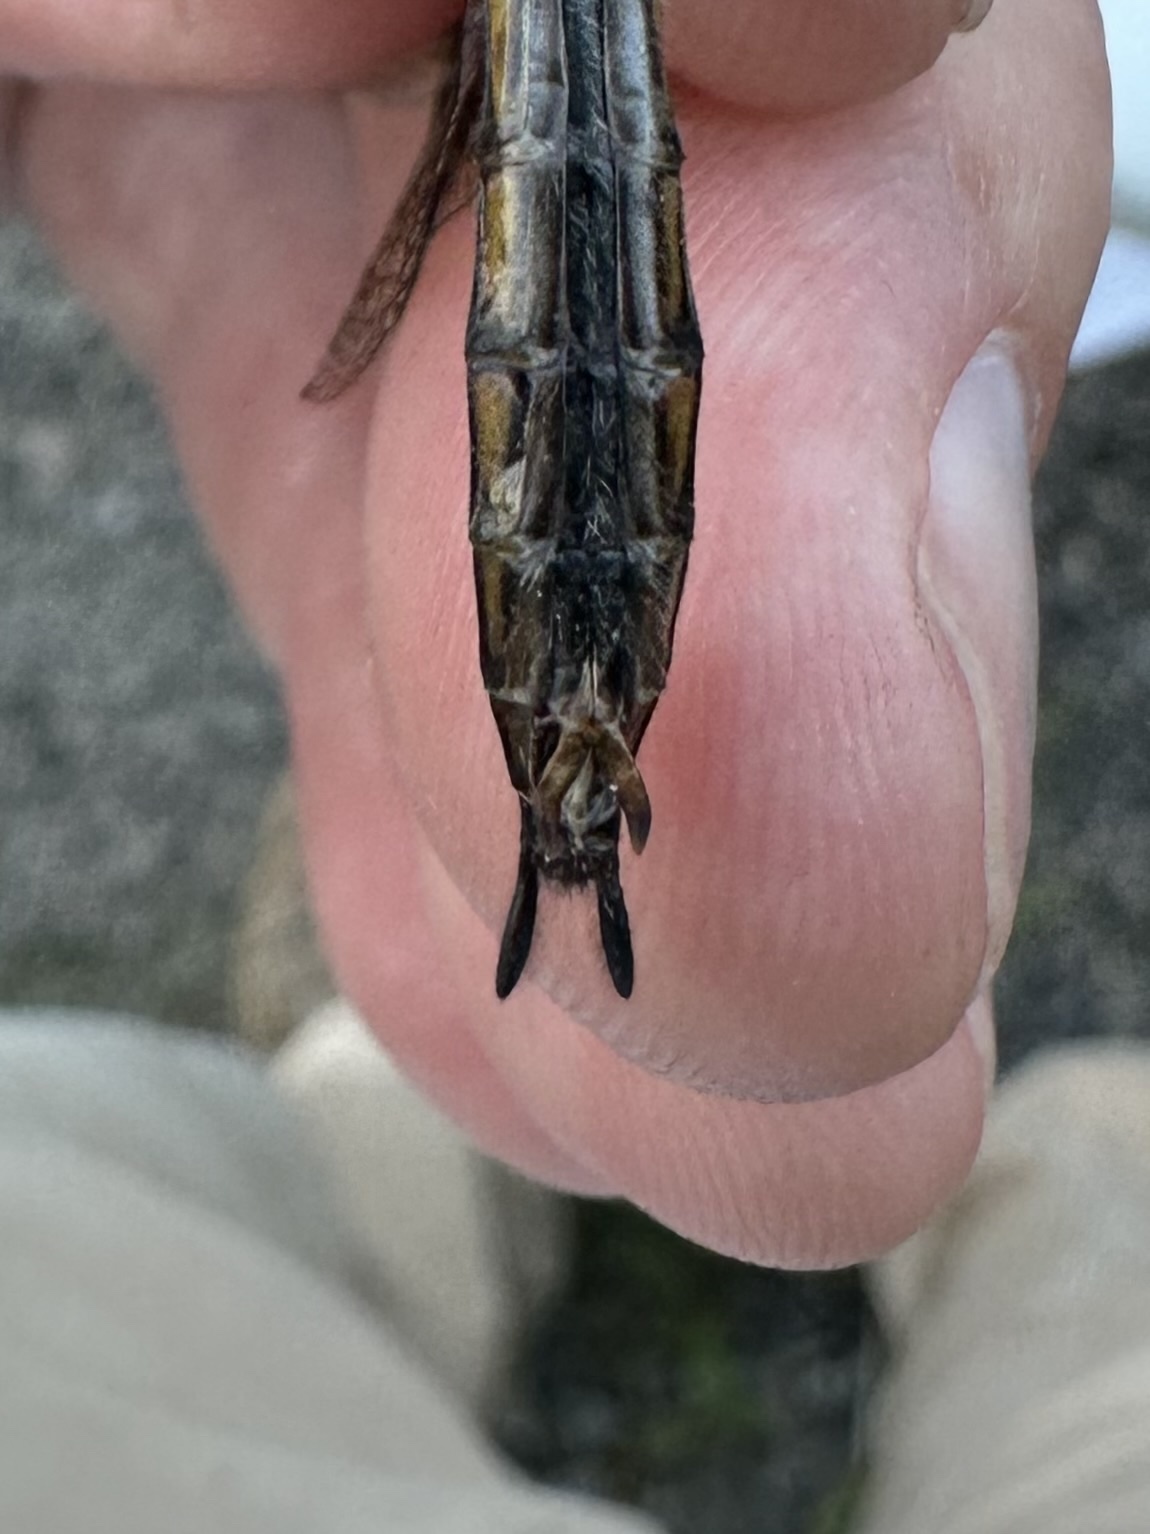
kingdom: Animalia
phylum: Arthropoda
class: Insecta
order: Odonata
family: Corduliidae
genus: Epitheca
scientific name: Epitheca spinigera
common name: Spiny baskettail
